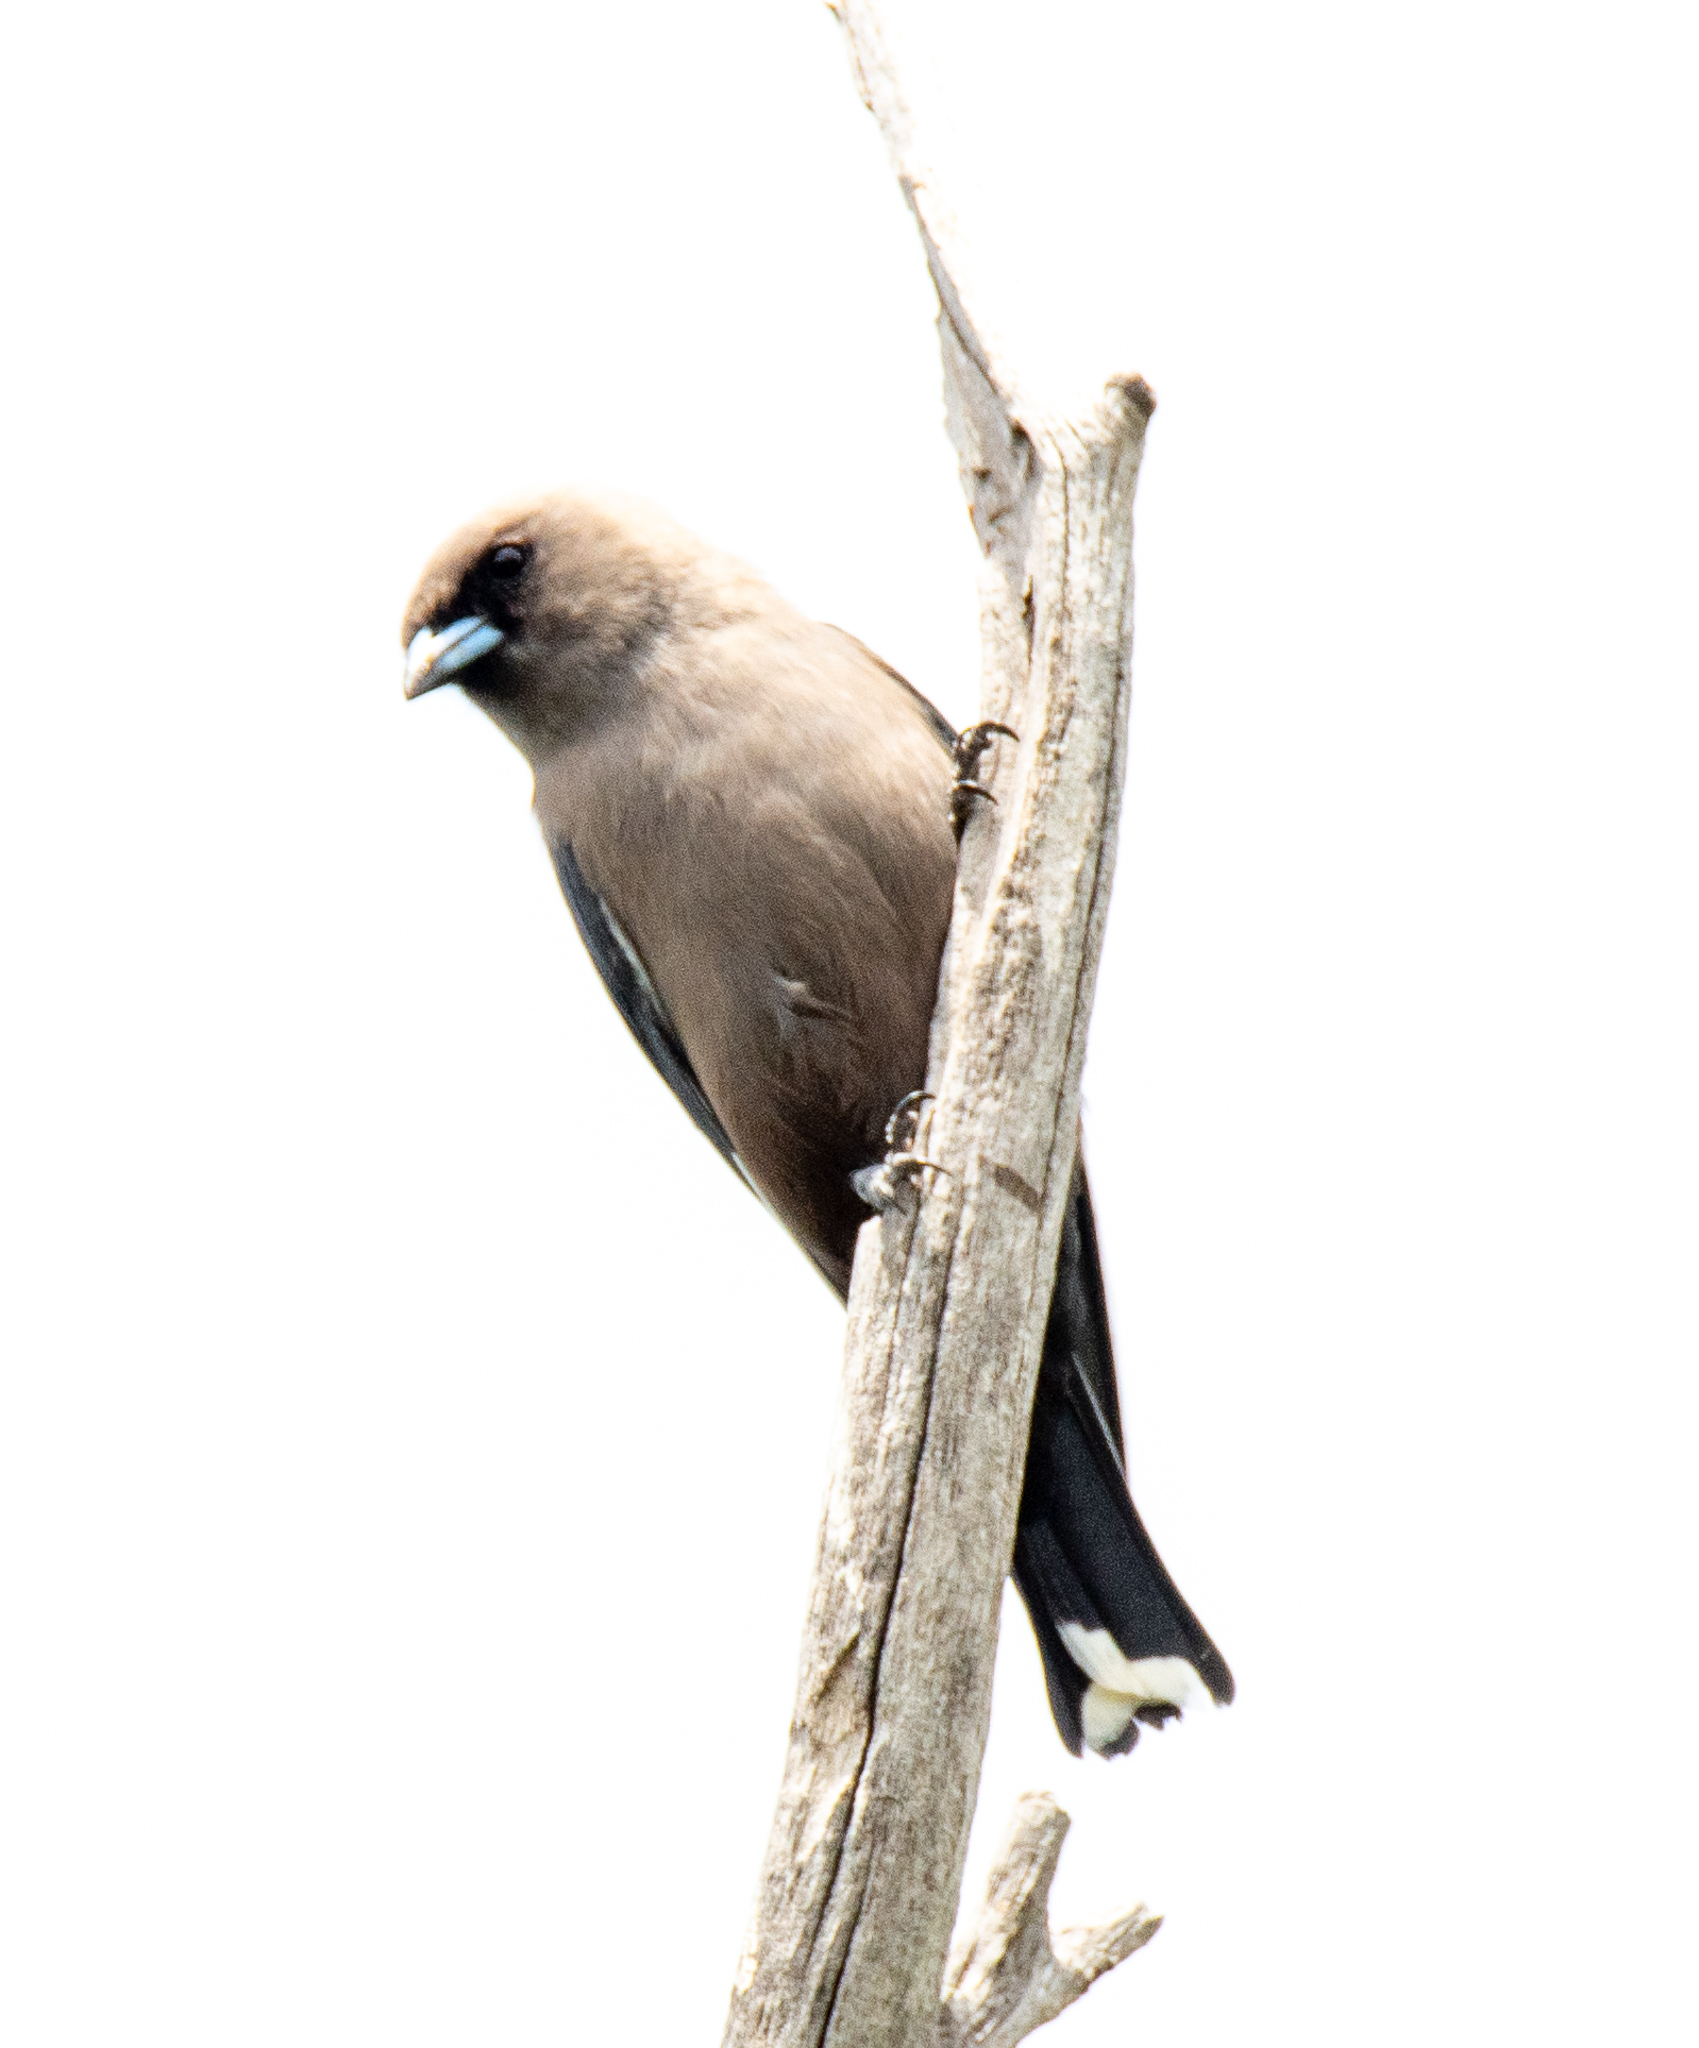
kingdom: Animalia
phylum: Chordata
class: Aves
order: Passeriformes
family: Artamidae
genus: Artamus
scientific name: Artamus cyanopterus
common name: Dusky woodswallow
